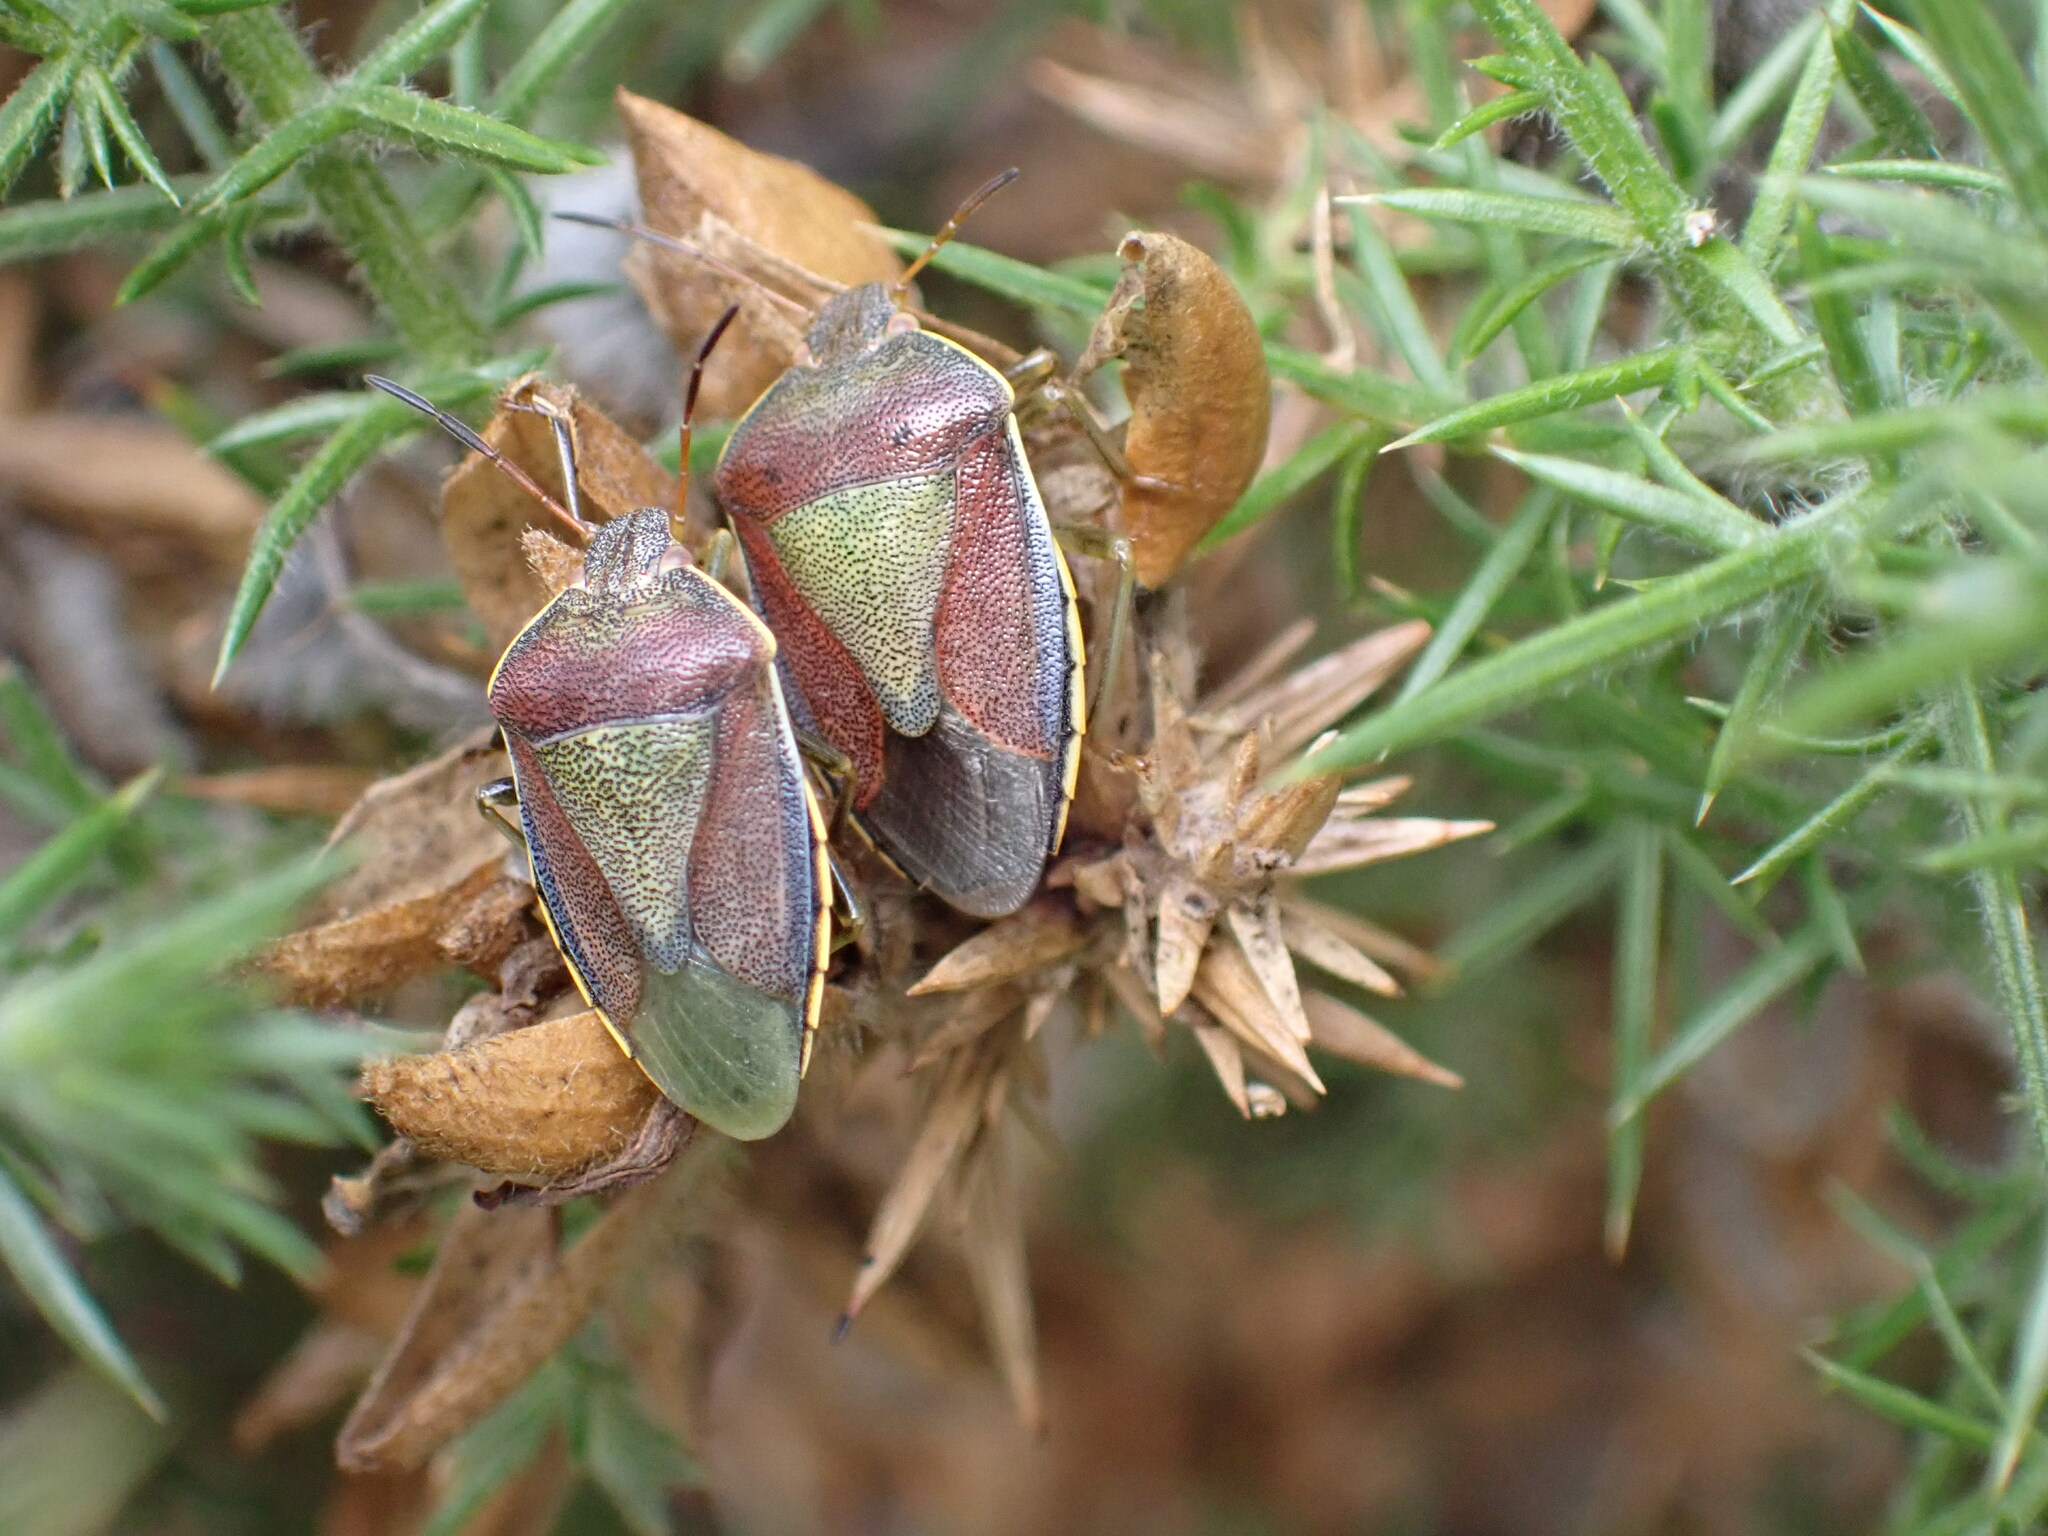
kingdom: Animalia
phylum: Arthropoda
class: Insecta
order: Hemiptera
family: Pentatomidae
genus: Piezodorus
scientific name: Piezodorus lituratus
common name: Stink bug
